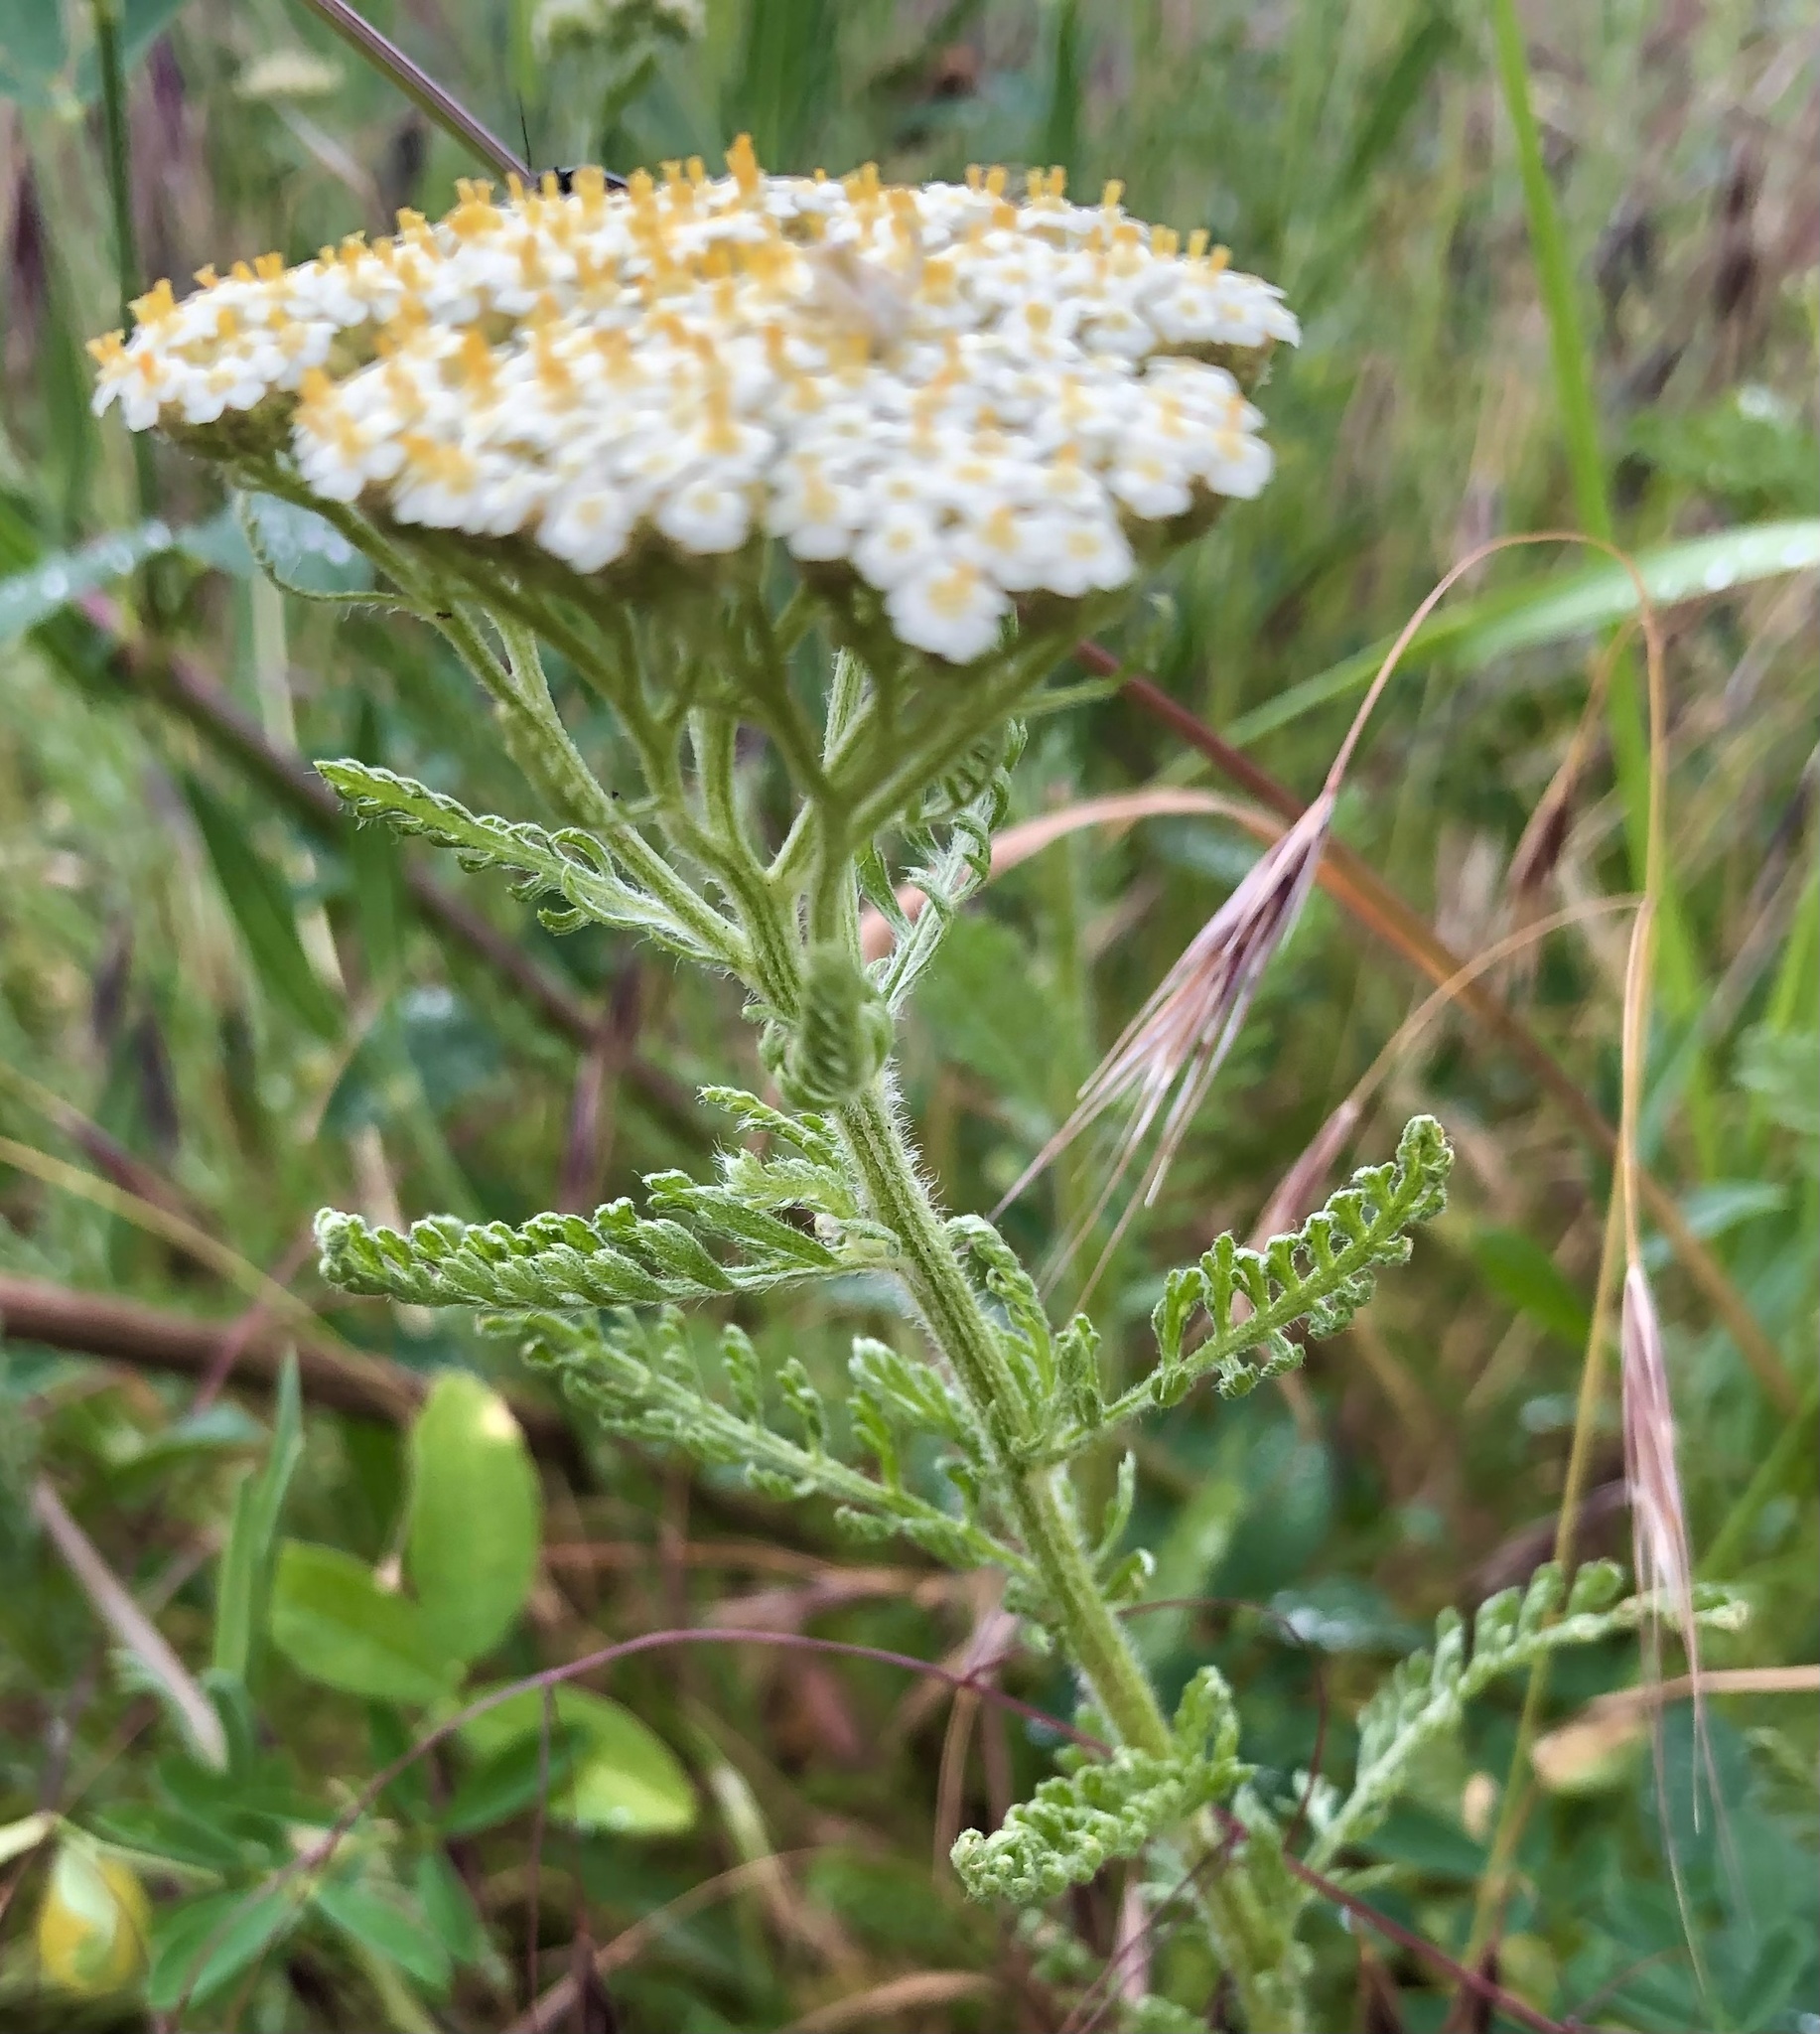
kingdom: Plantae
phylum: Tracheophyta
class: Magnoliopsida
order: Asterales
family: Asteraceae
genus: Achillea
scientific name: Achillea nobilis
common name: Noble yarrow
